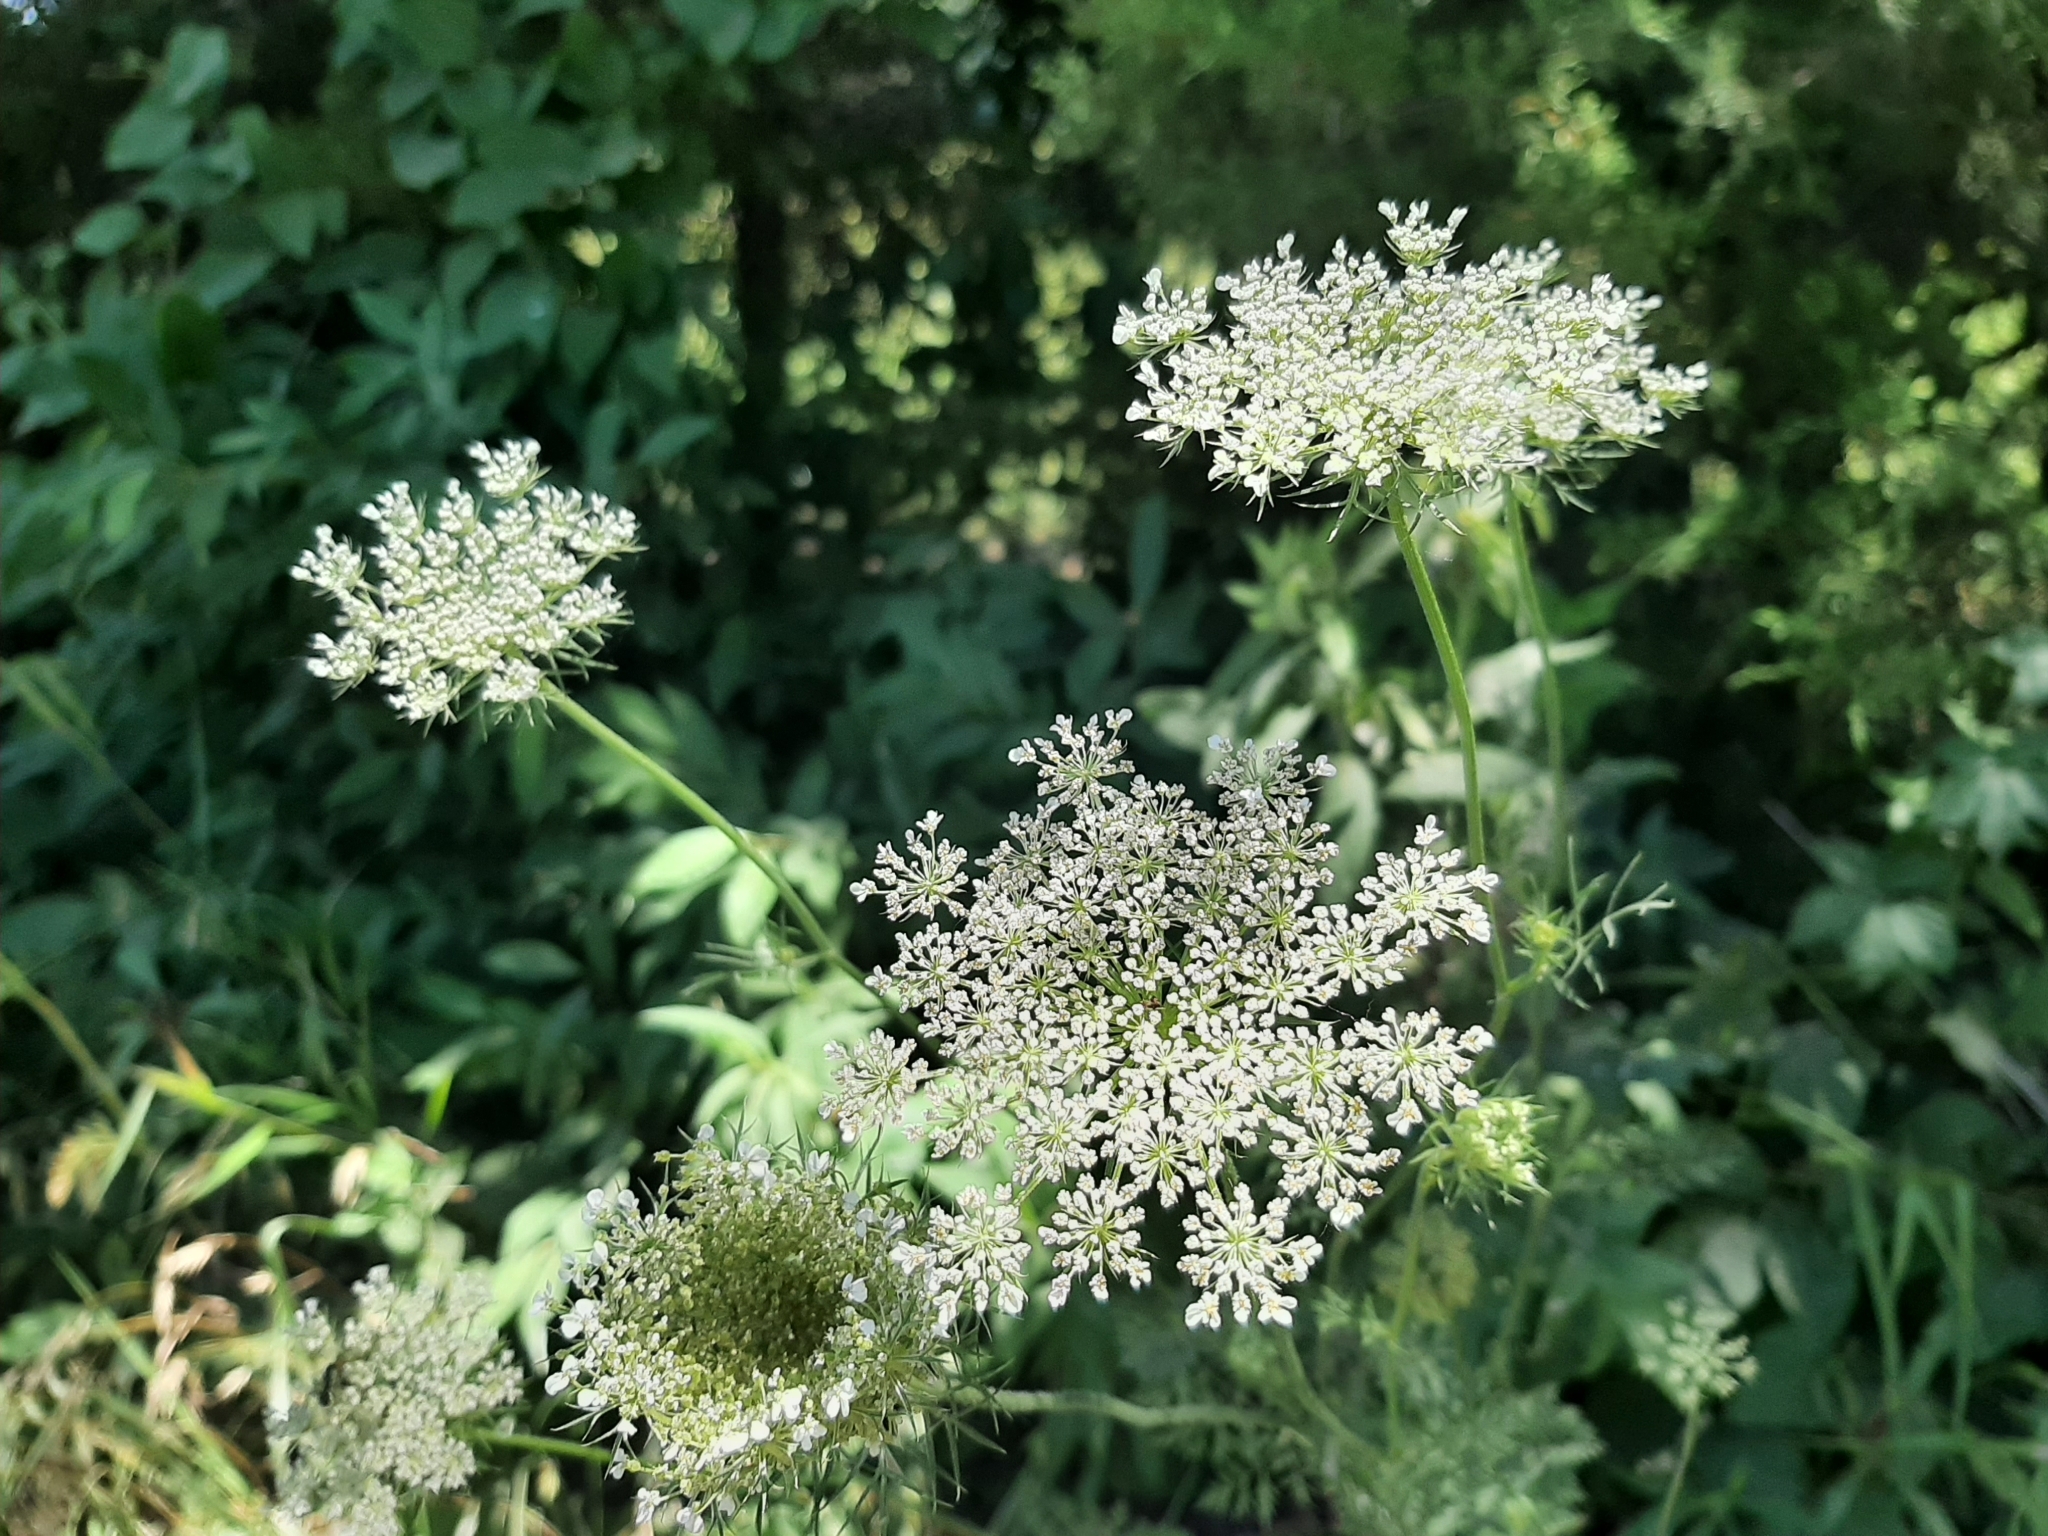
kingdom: Plantae
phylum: Tracheophyta
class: Magnoliopsida
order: Apiales
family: Apiaceae
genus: Daucus
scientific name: Daucus carota
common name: Wild carrot
